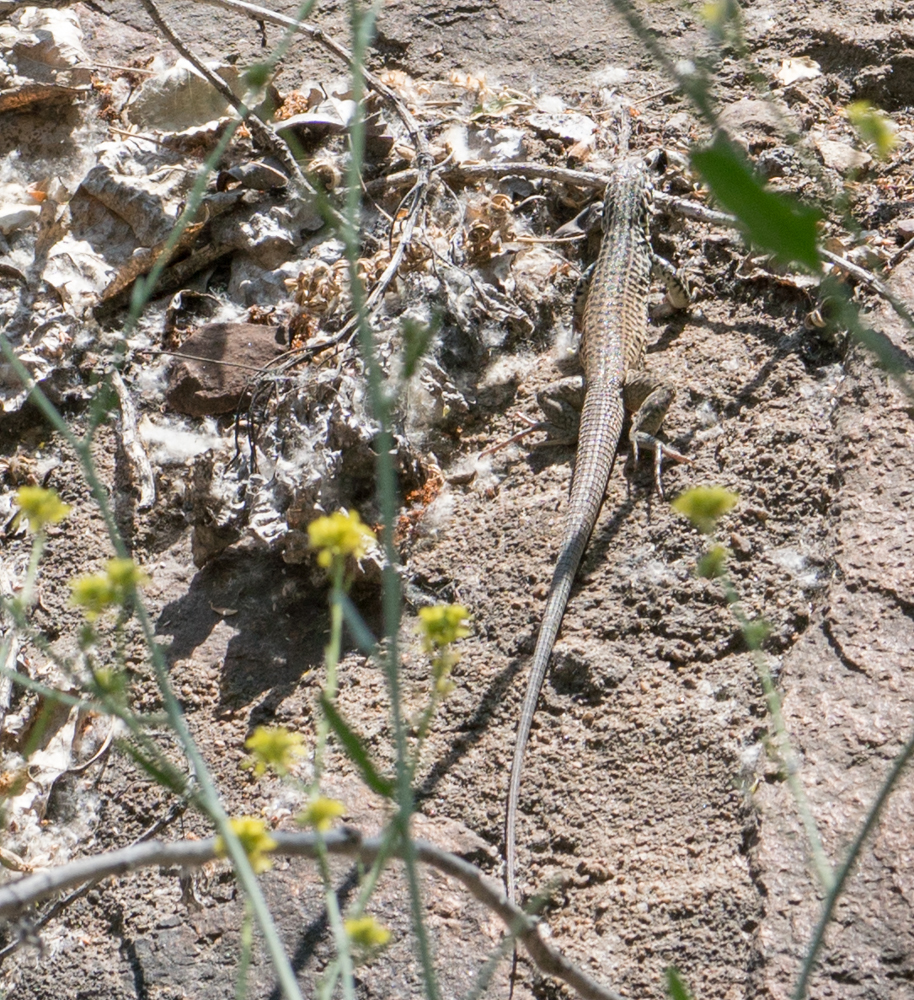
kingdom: Animalia
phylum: Chordata
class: Squamata
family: Teiidae
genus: Aspidoscelis
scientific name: Aspidoscelis tigris
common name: Tiger whiptail
